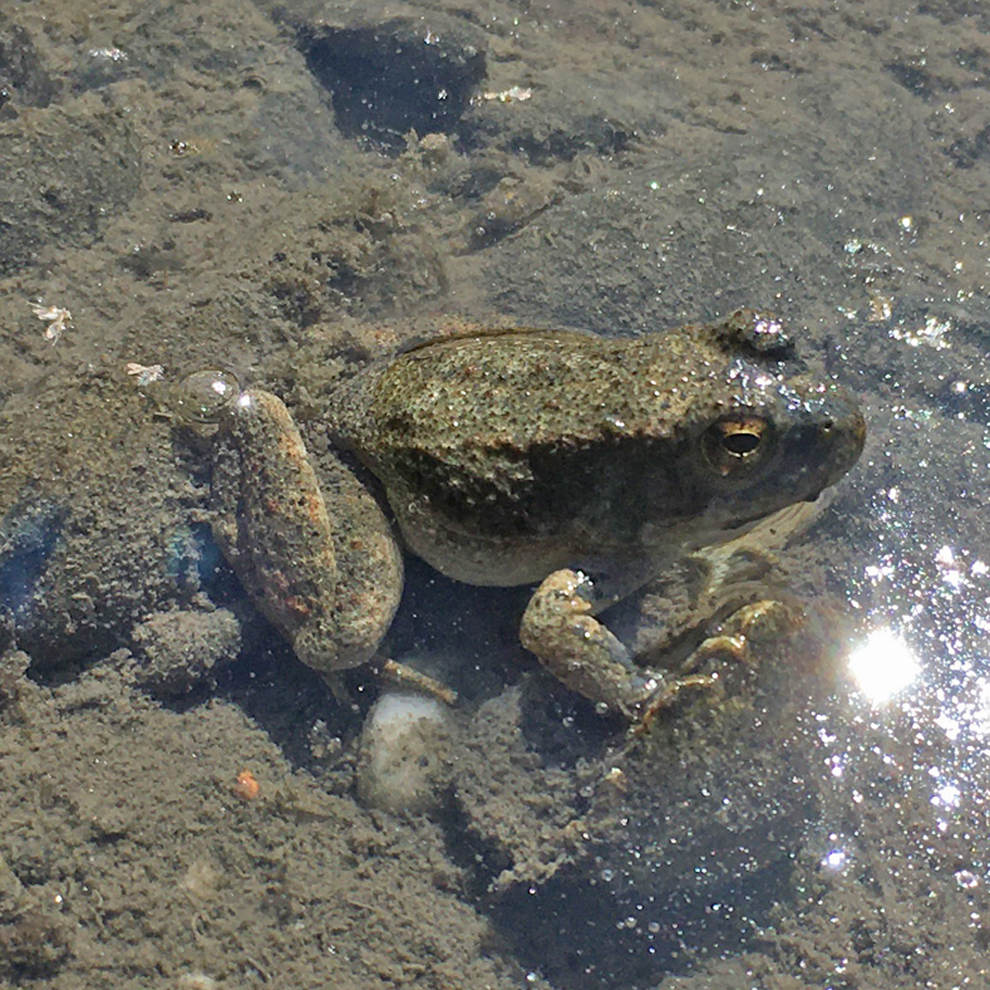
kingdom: Animalia
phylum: Chordata
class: Amphibia
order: Anura
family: Ranidae
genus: Rana
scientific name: Rana boylii
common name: Foothill yellow-legged frog
